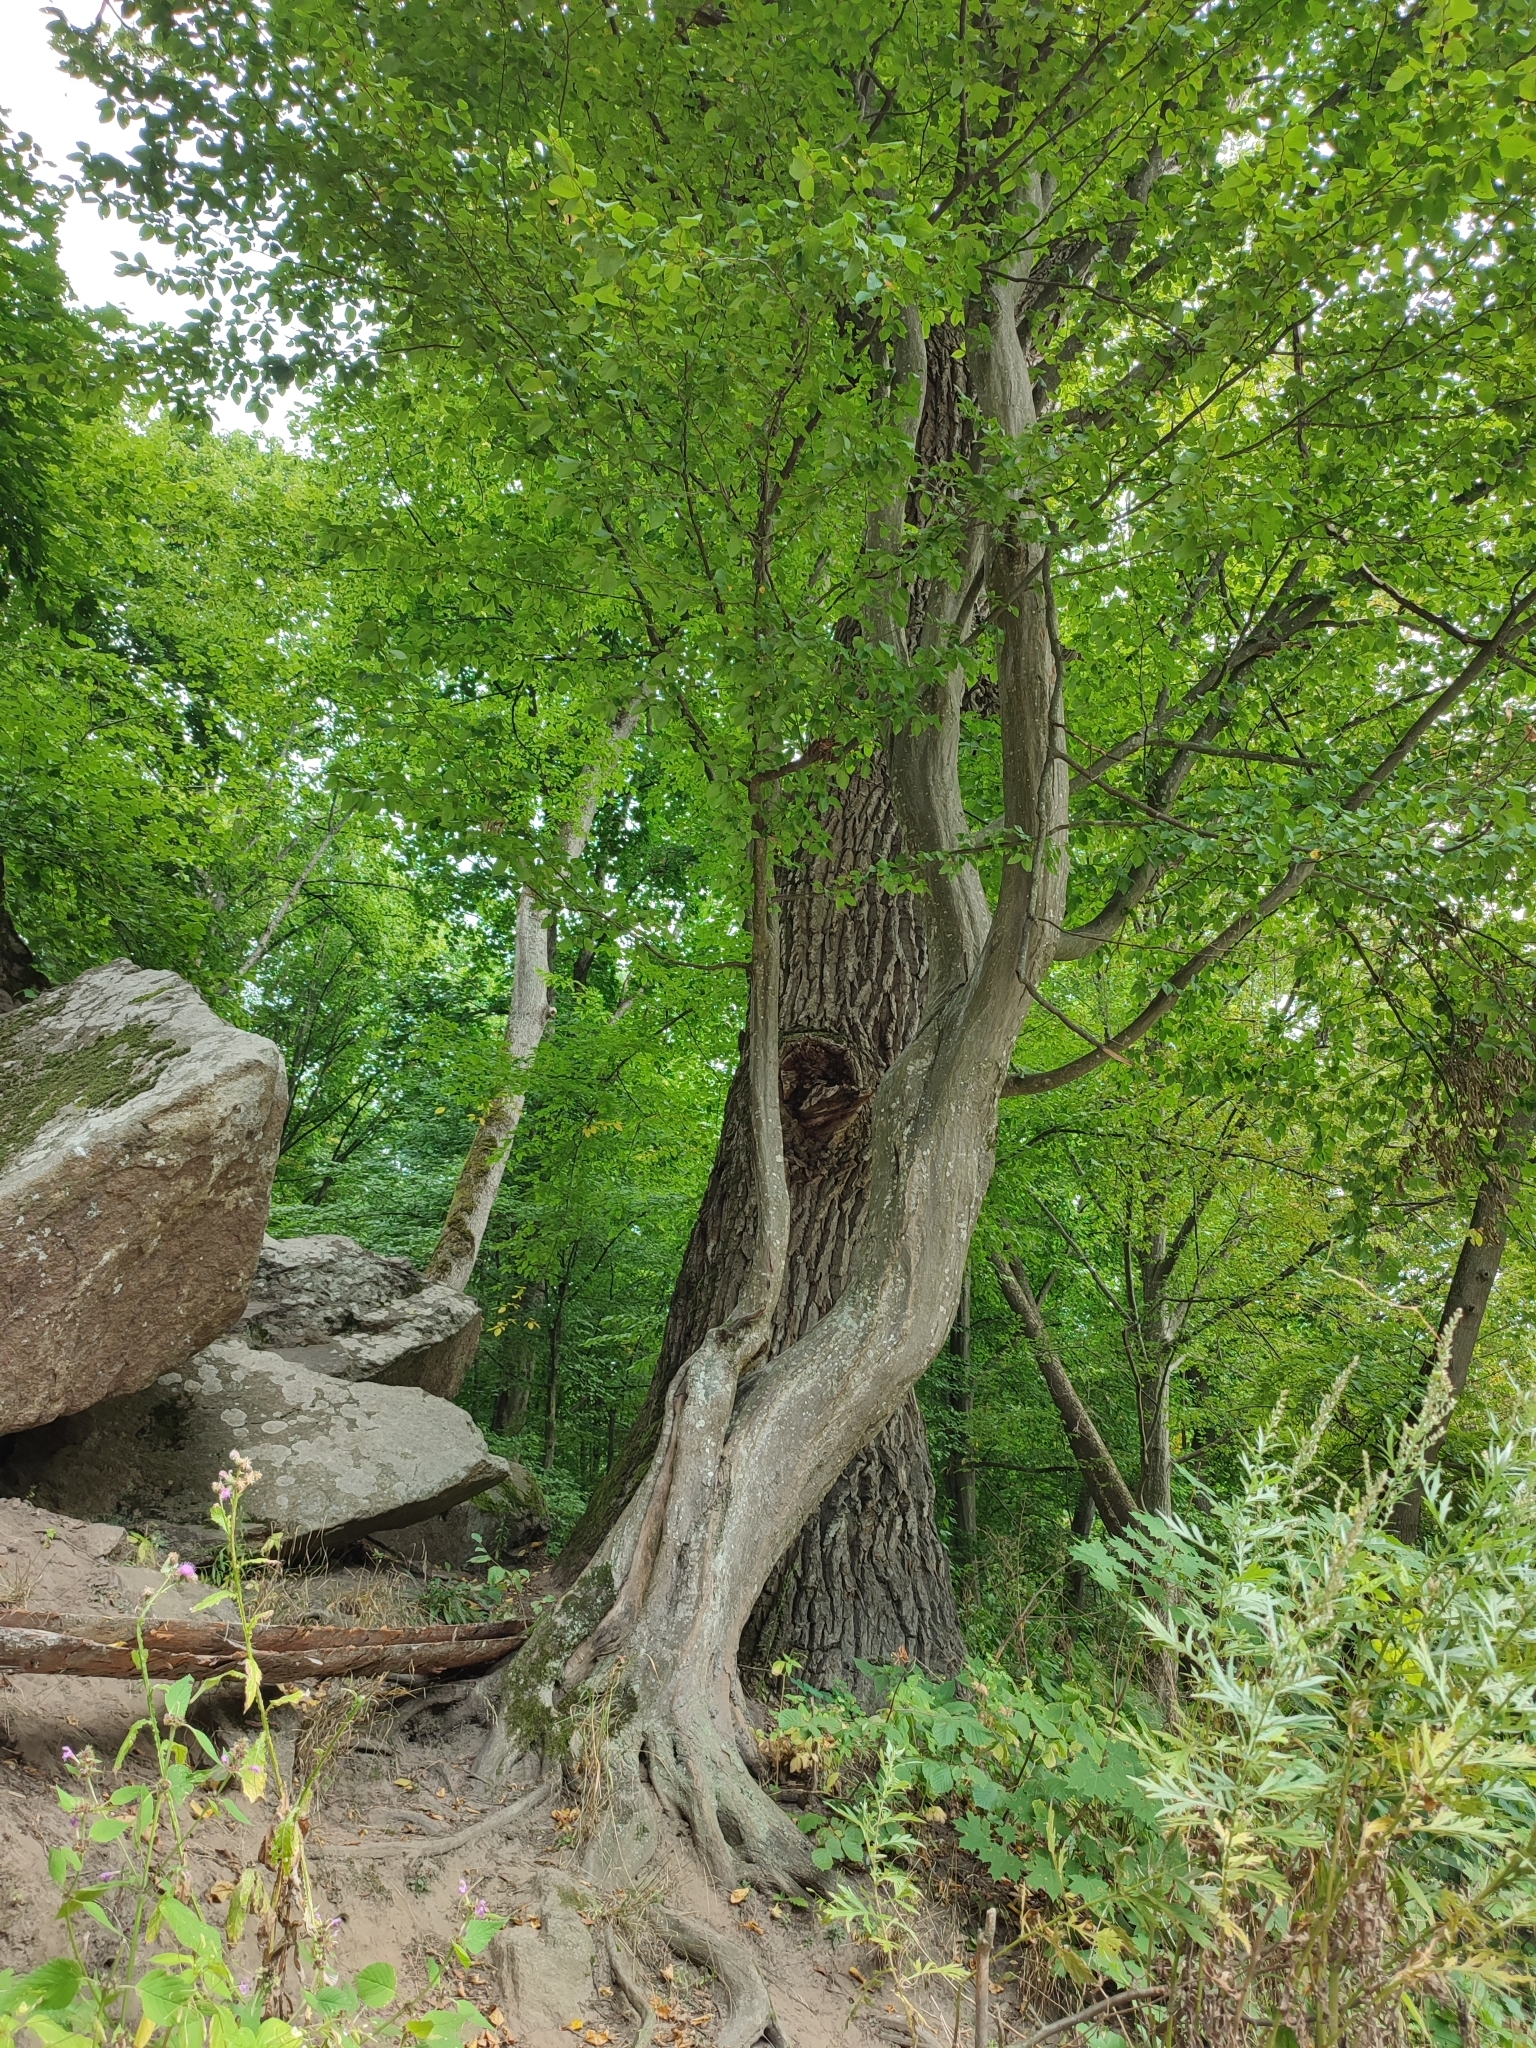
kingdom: Plantae
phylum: Tracheophyta
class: Magnoliopsida
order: Fagales
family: Betulaceae
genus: Carpinus
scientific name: Carpinus betulus
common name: Hornbeam
